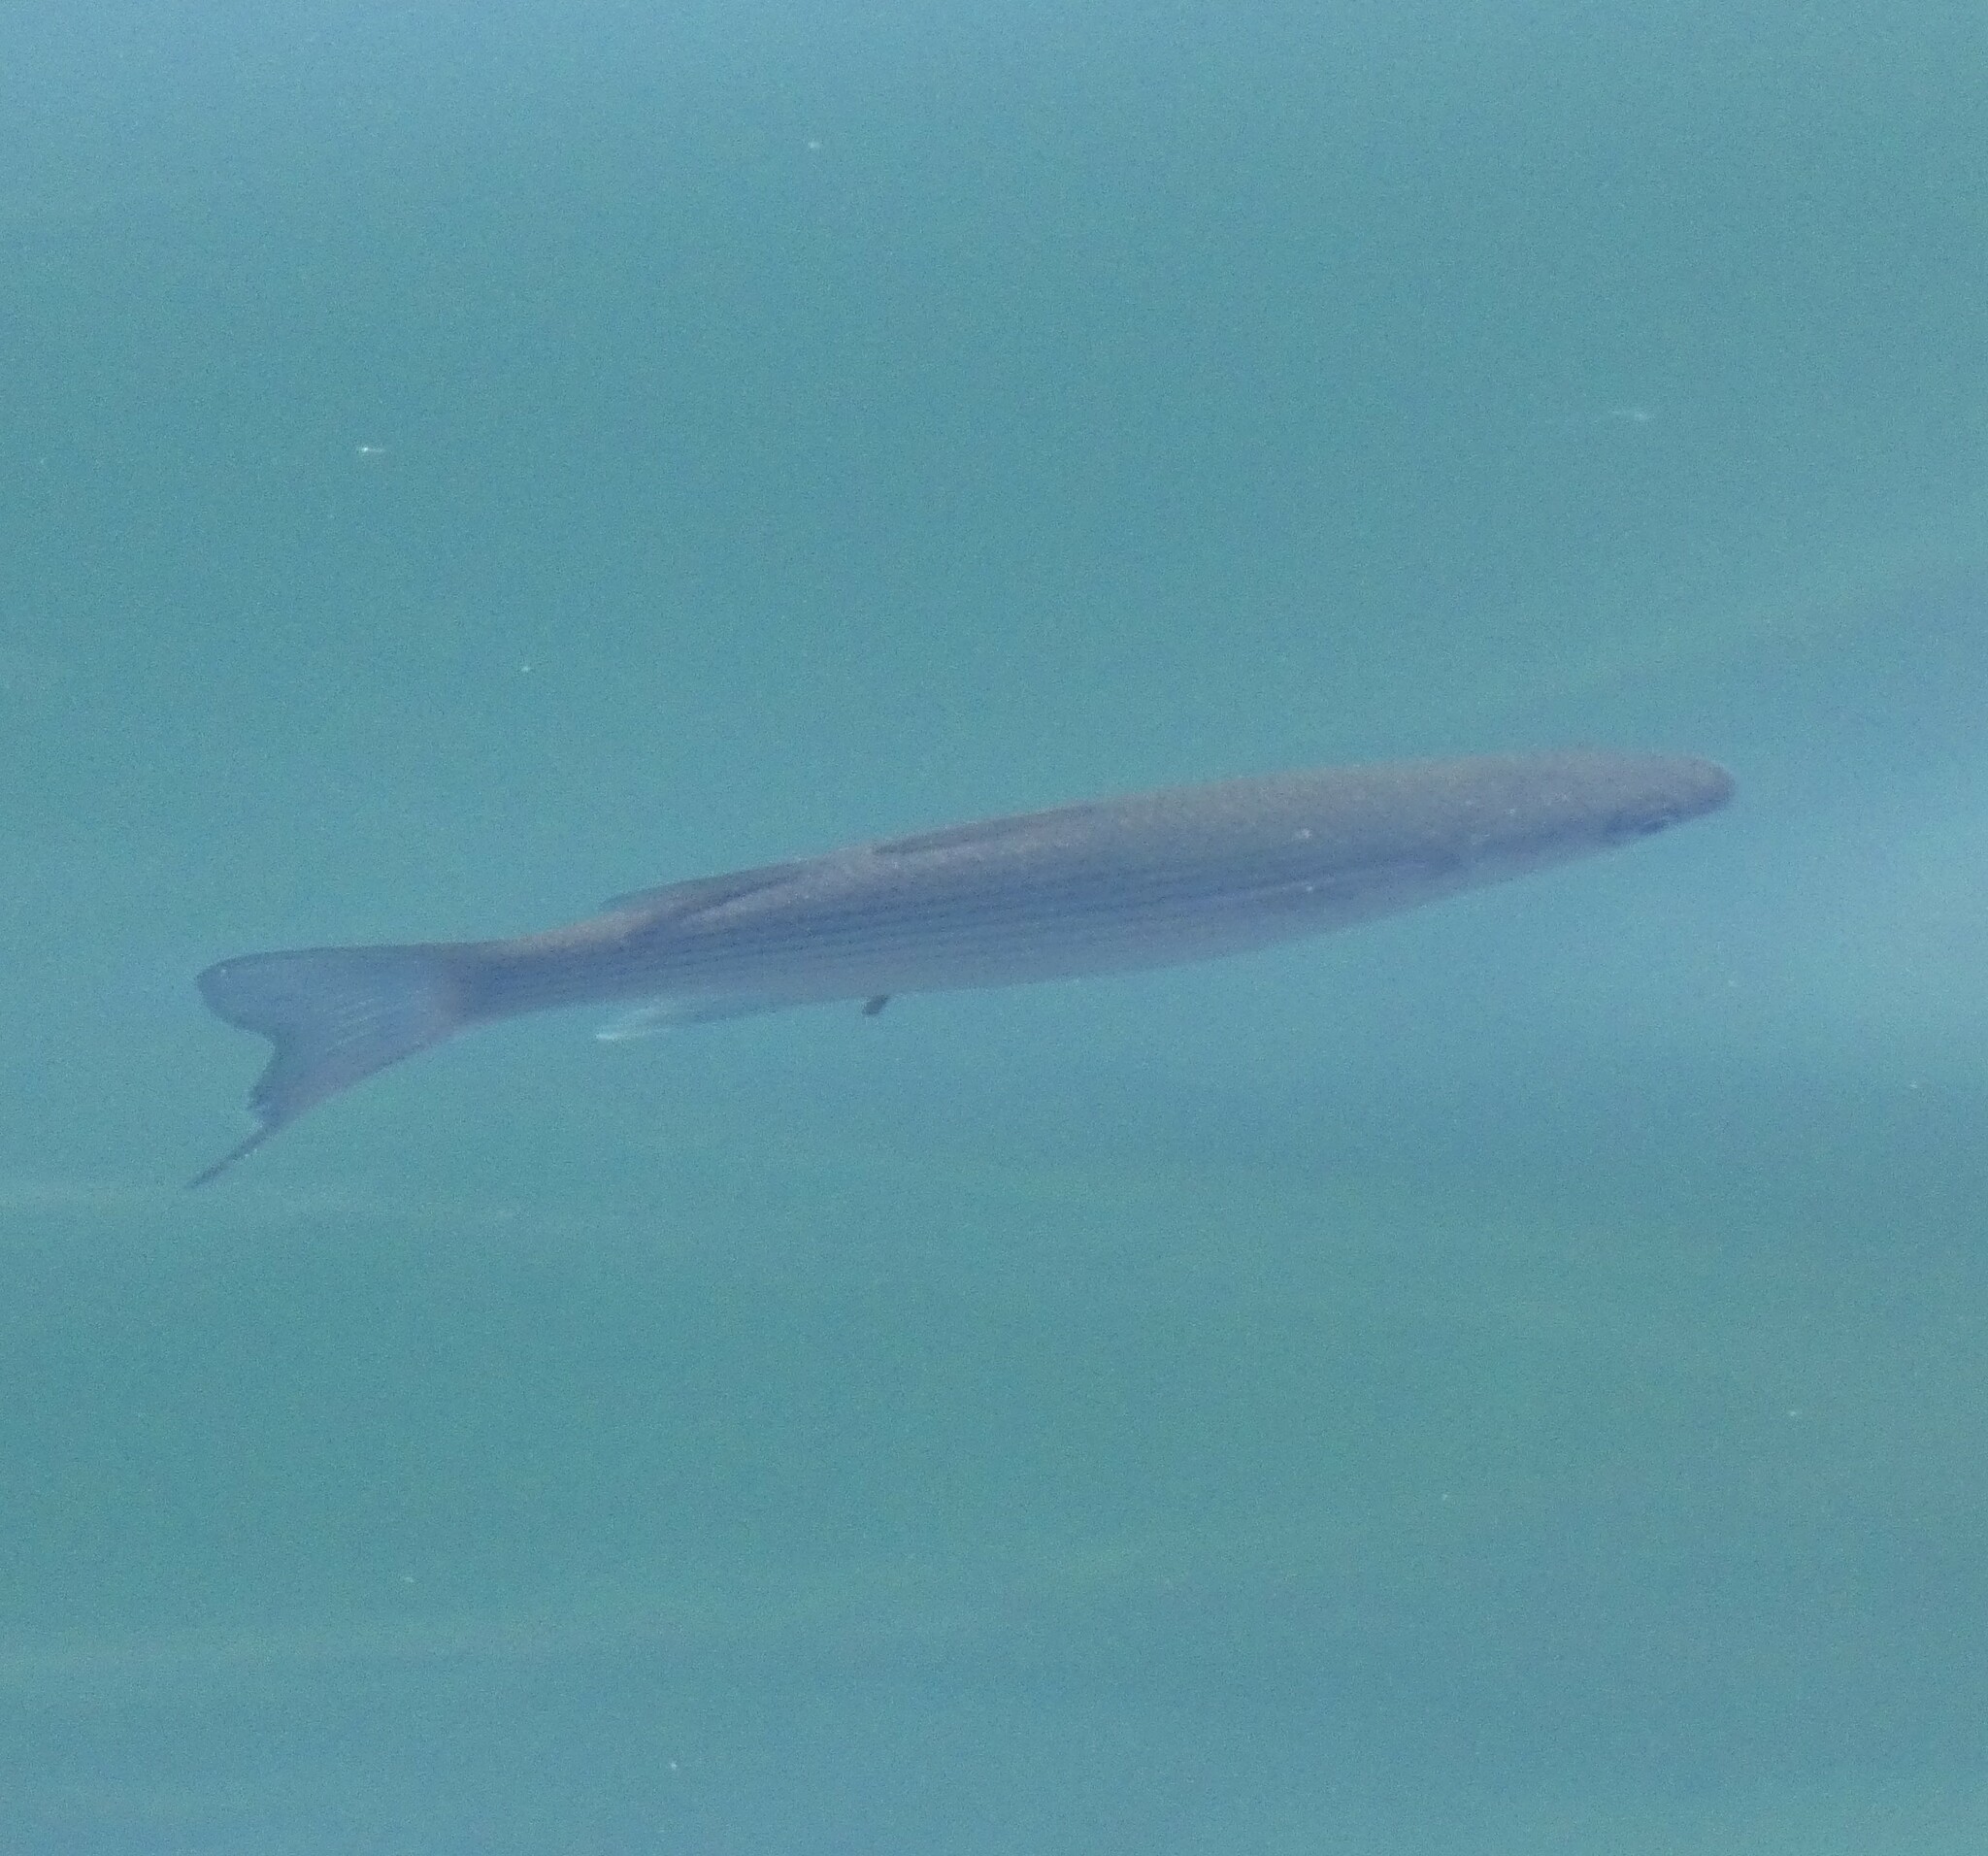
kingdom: Animalia
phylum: Chordata
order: Mugiliformes
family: Mugilidae
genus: Chelon
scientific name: Chelon labrosus
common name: Thick-lipped mullet
